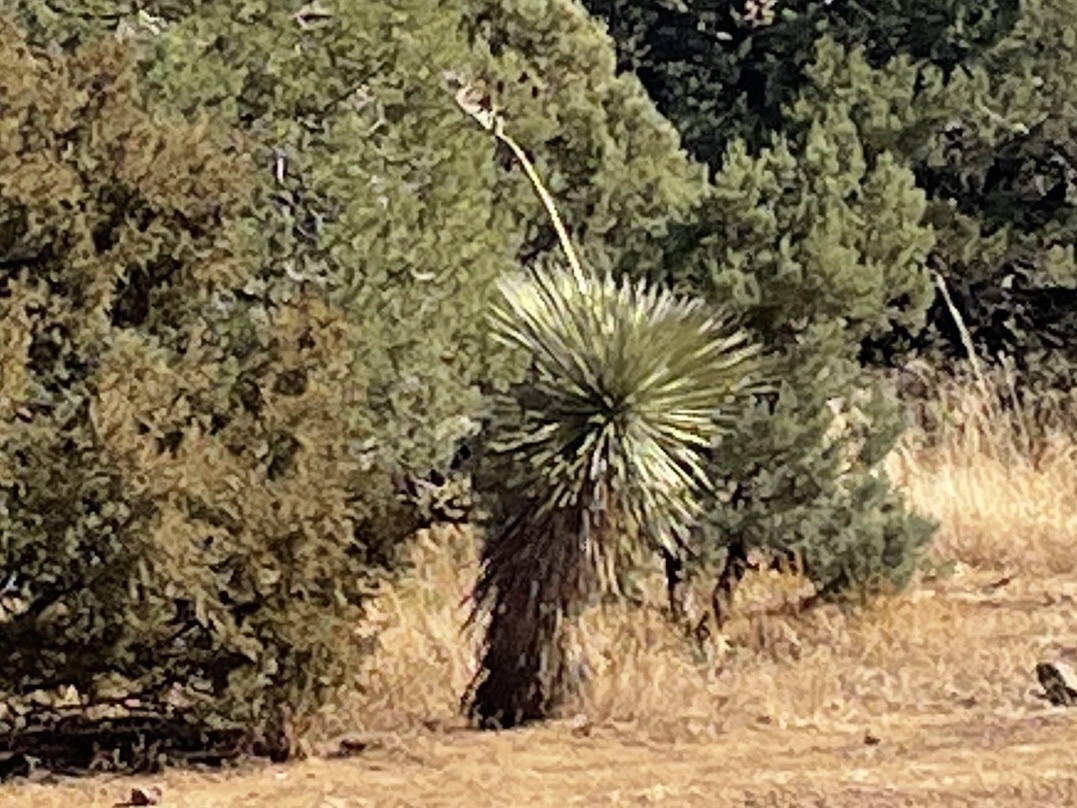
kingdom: Plantae
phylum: Tracheophyta
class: Liliopsida
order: Asparagales
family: Asparagaceae
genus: Yucca
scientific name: Yucca elata
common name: Palmella
